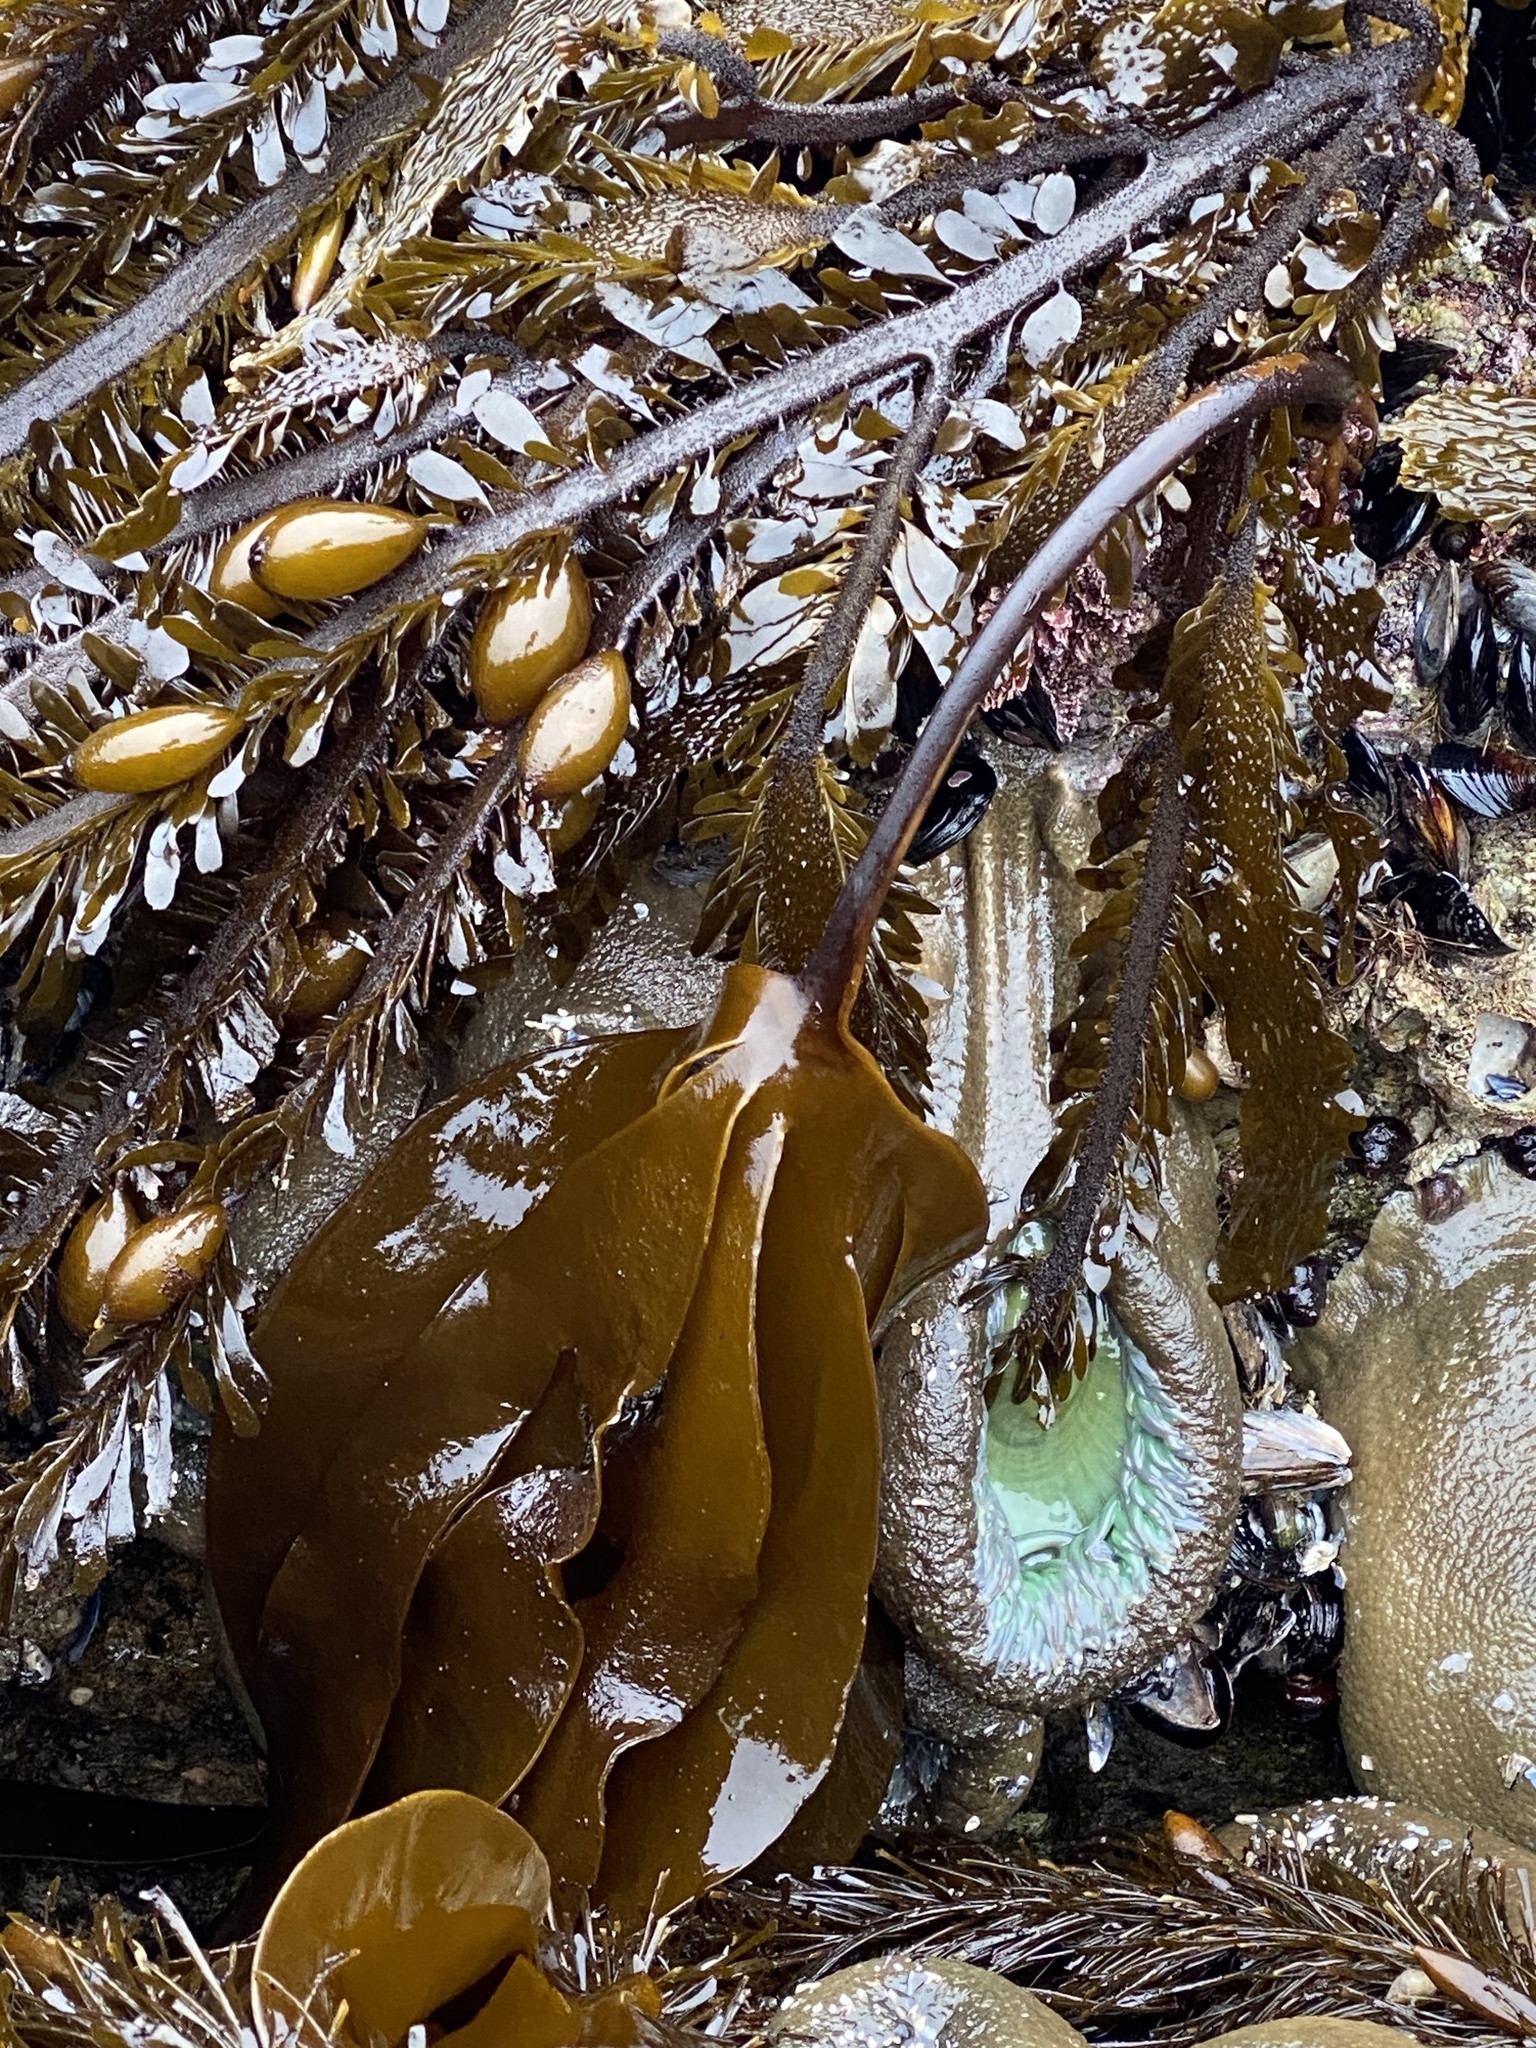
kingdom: Chromista
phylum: Ochrophyta
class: Phaeophyceae
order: Laminariales
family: Lessoniaceae
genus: Egregia
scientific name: Egregia menziesii
